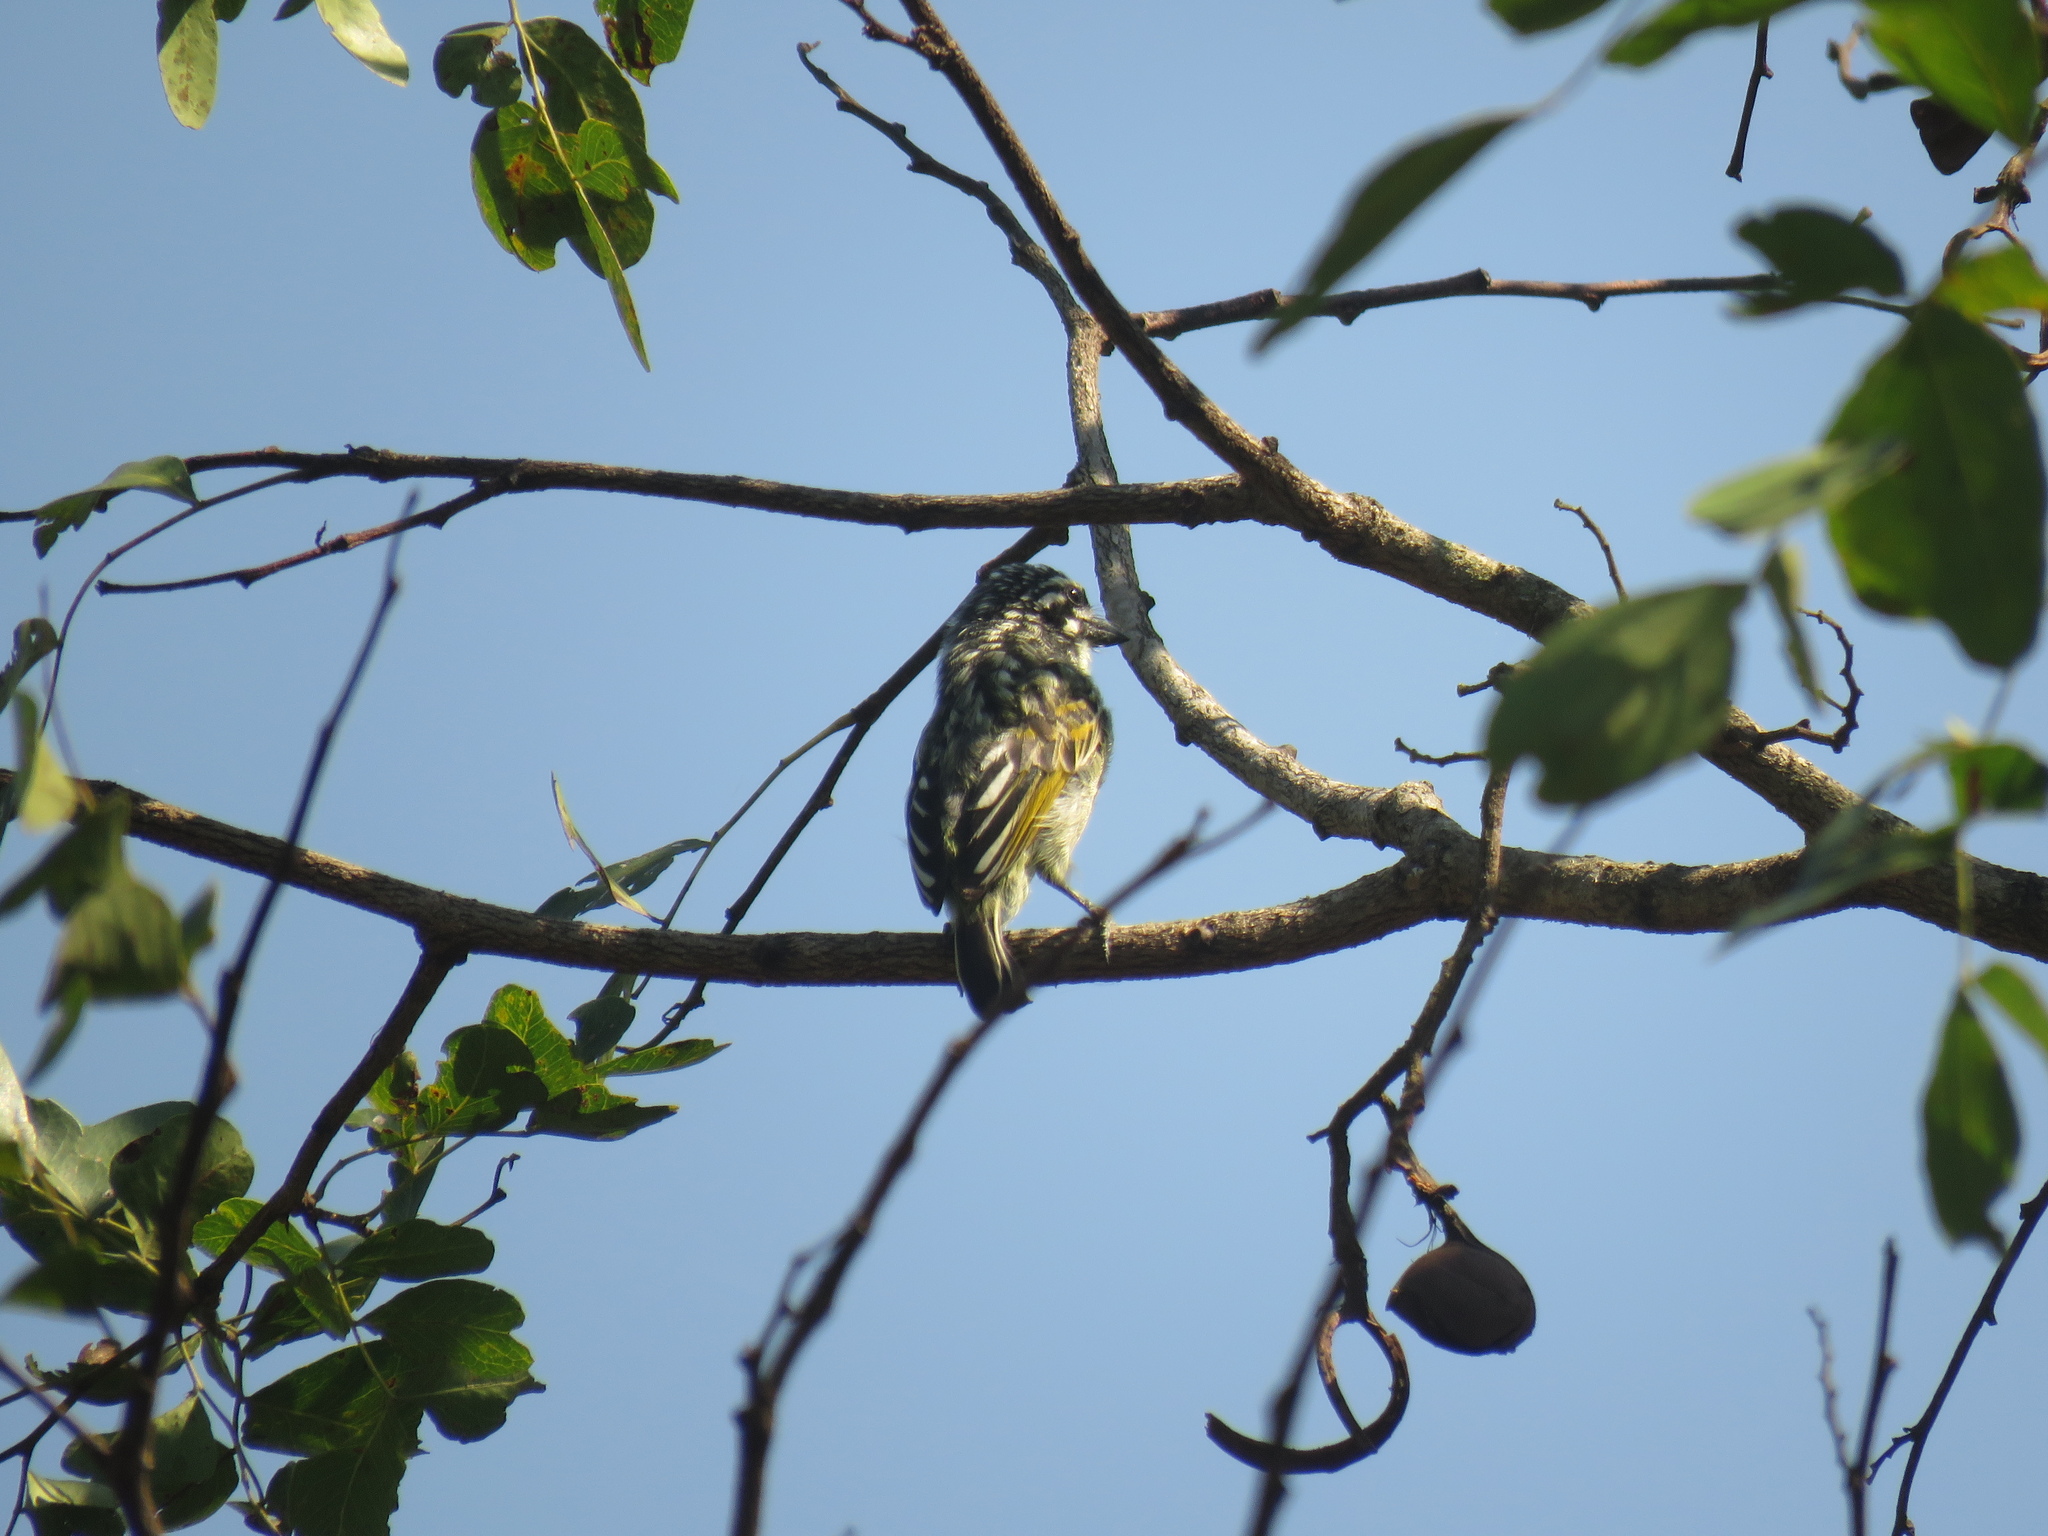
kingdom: Animalia
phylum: Chordata
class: Aves
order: Piciformes
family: Lybiidae
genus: Pogoniulus
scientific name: Pogoniulus chrysoconus
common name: Yellow-fronted tinkerbird
